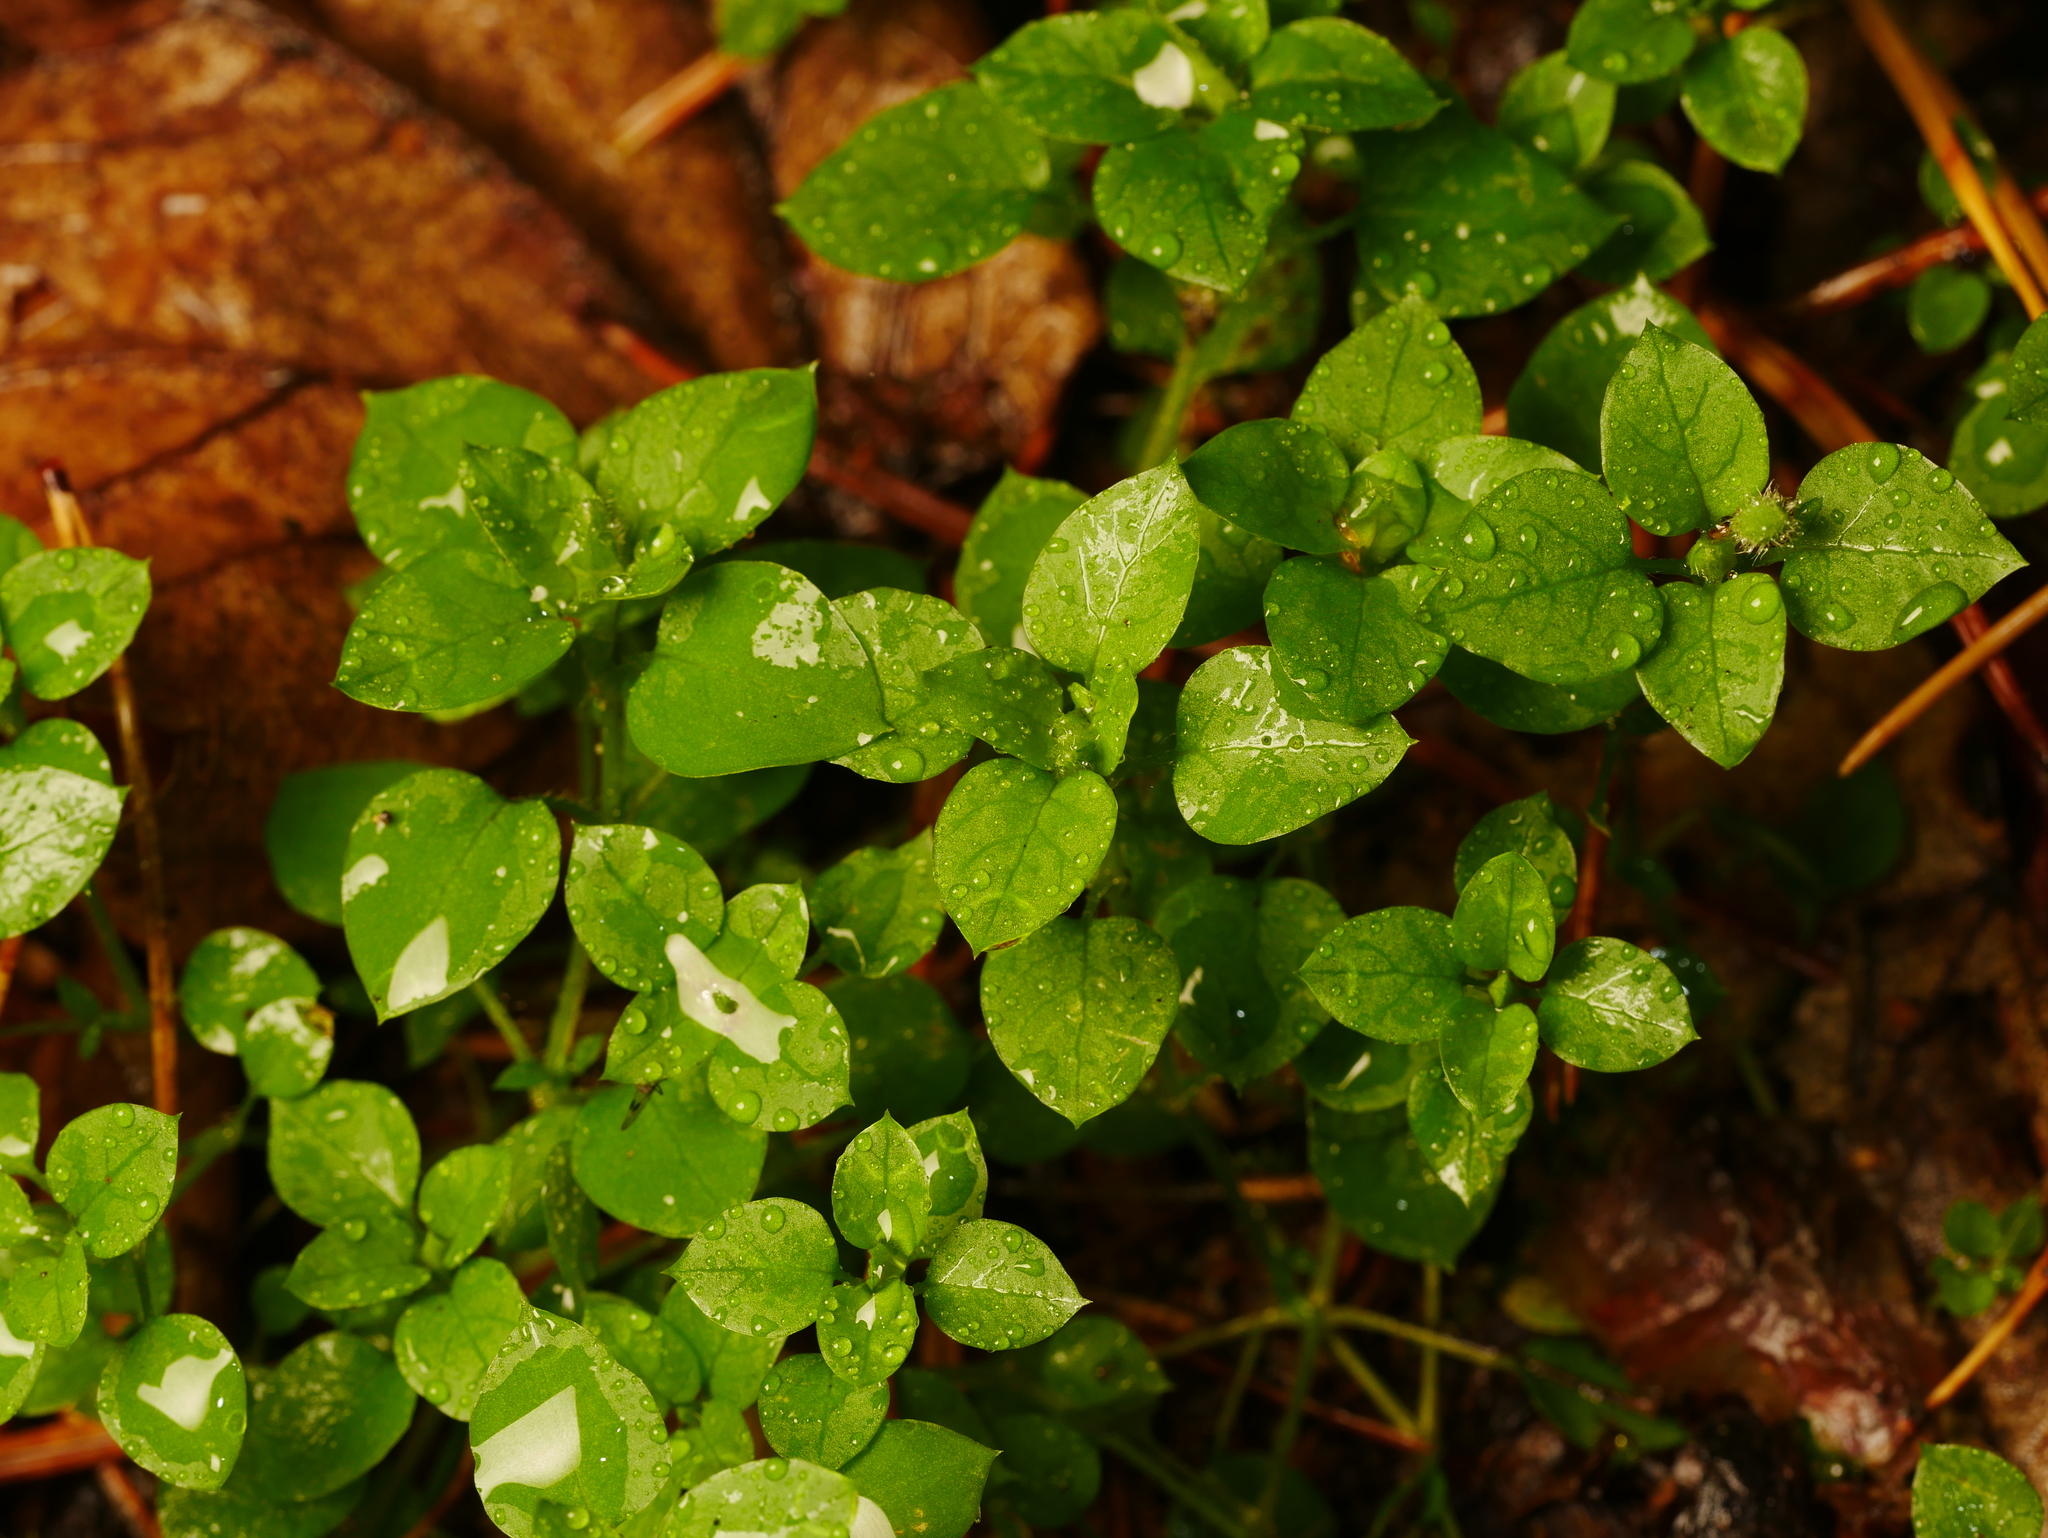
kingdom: Plantae
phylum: Tracheophyta
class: Magnoliopsida
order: Caryophyllales
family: Caryophyllaceae
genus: Stellaria
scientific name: Stellaria media
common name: Common chickweed
